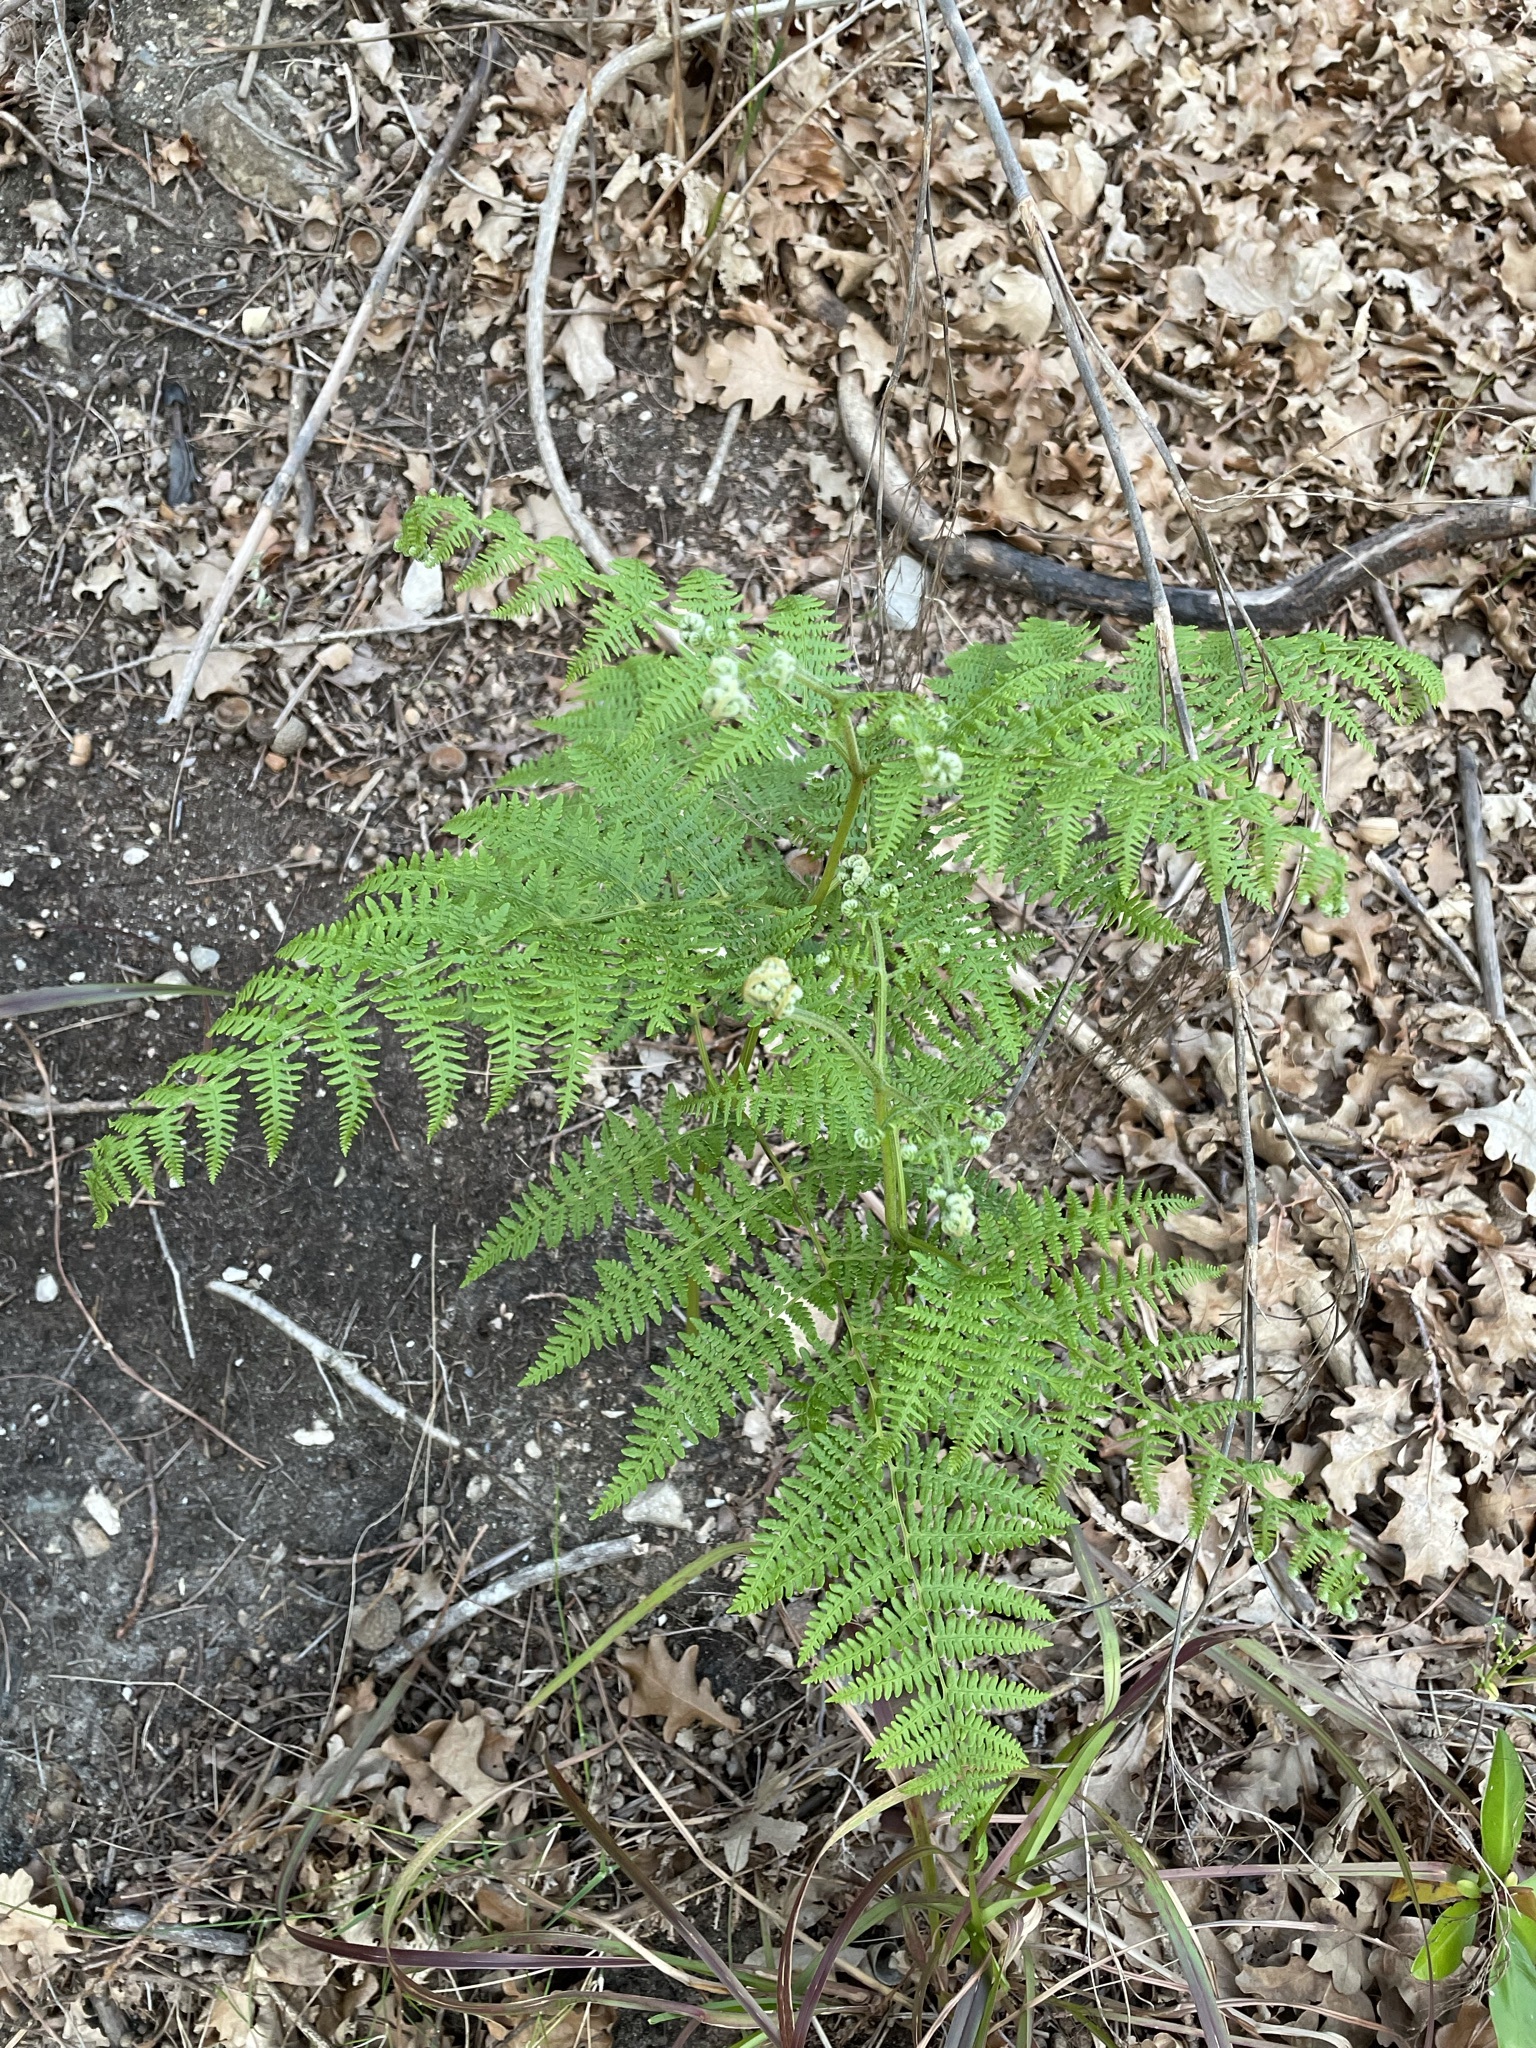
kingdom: Plantae
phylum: Tracheophyta
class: Polypodiopsida
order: Polypodiales
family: Dennstaedtiaceae
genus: Pteridium
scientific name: Pteridium aquilinum
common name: Bracken
